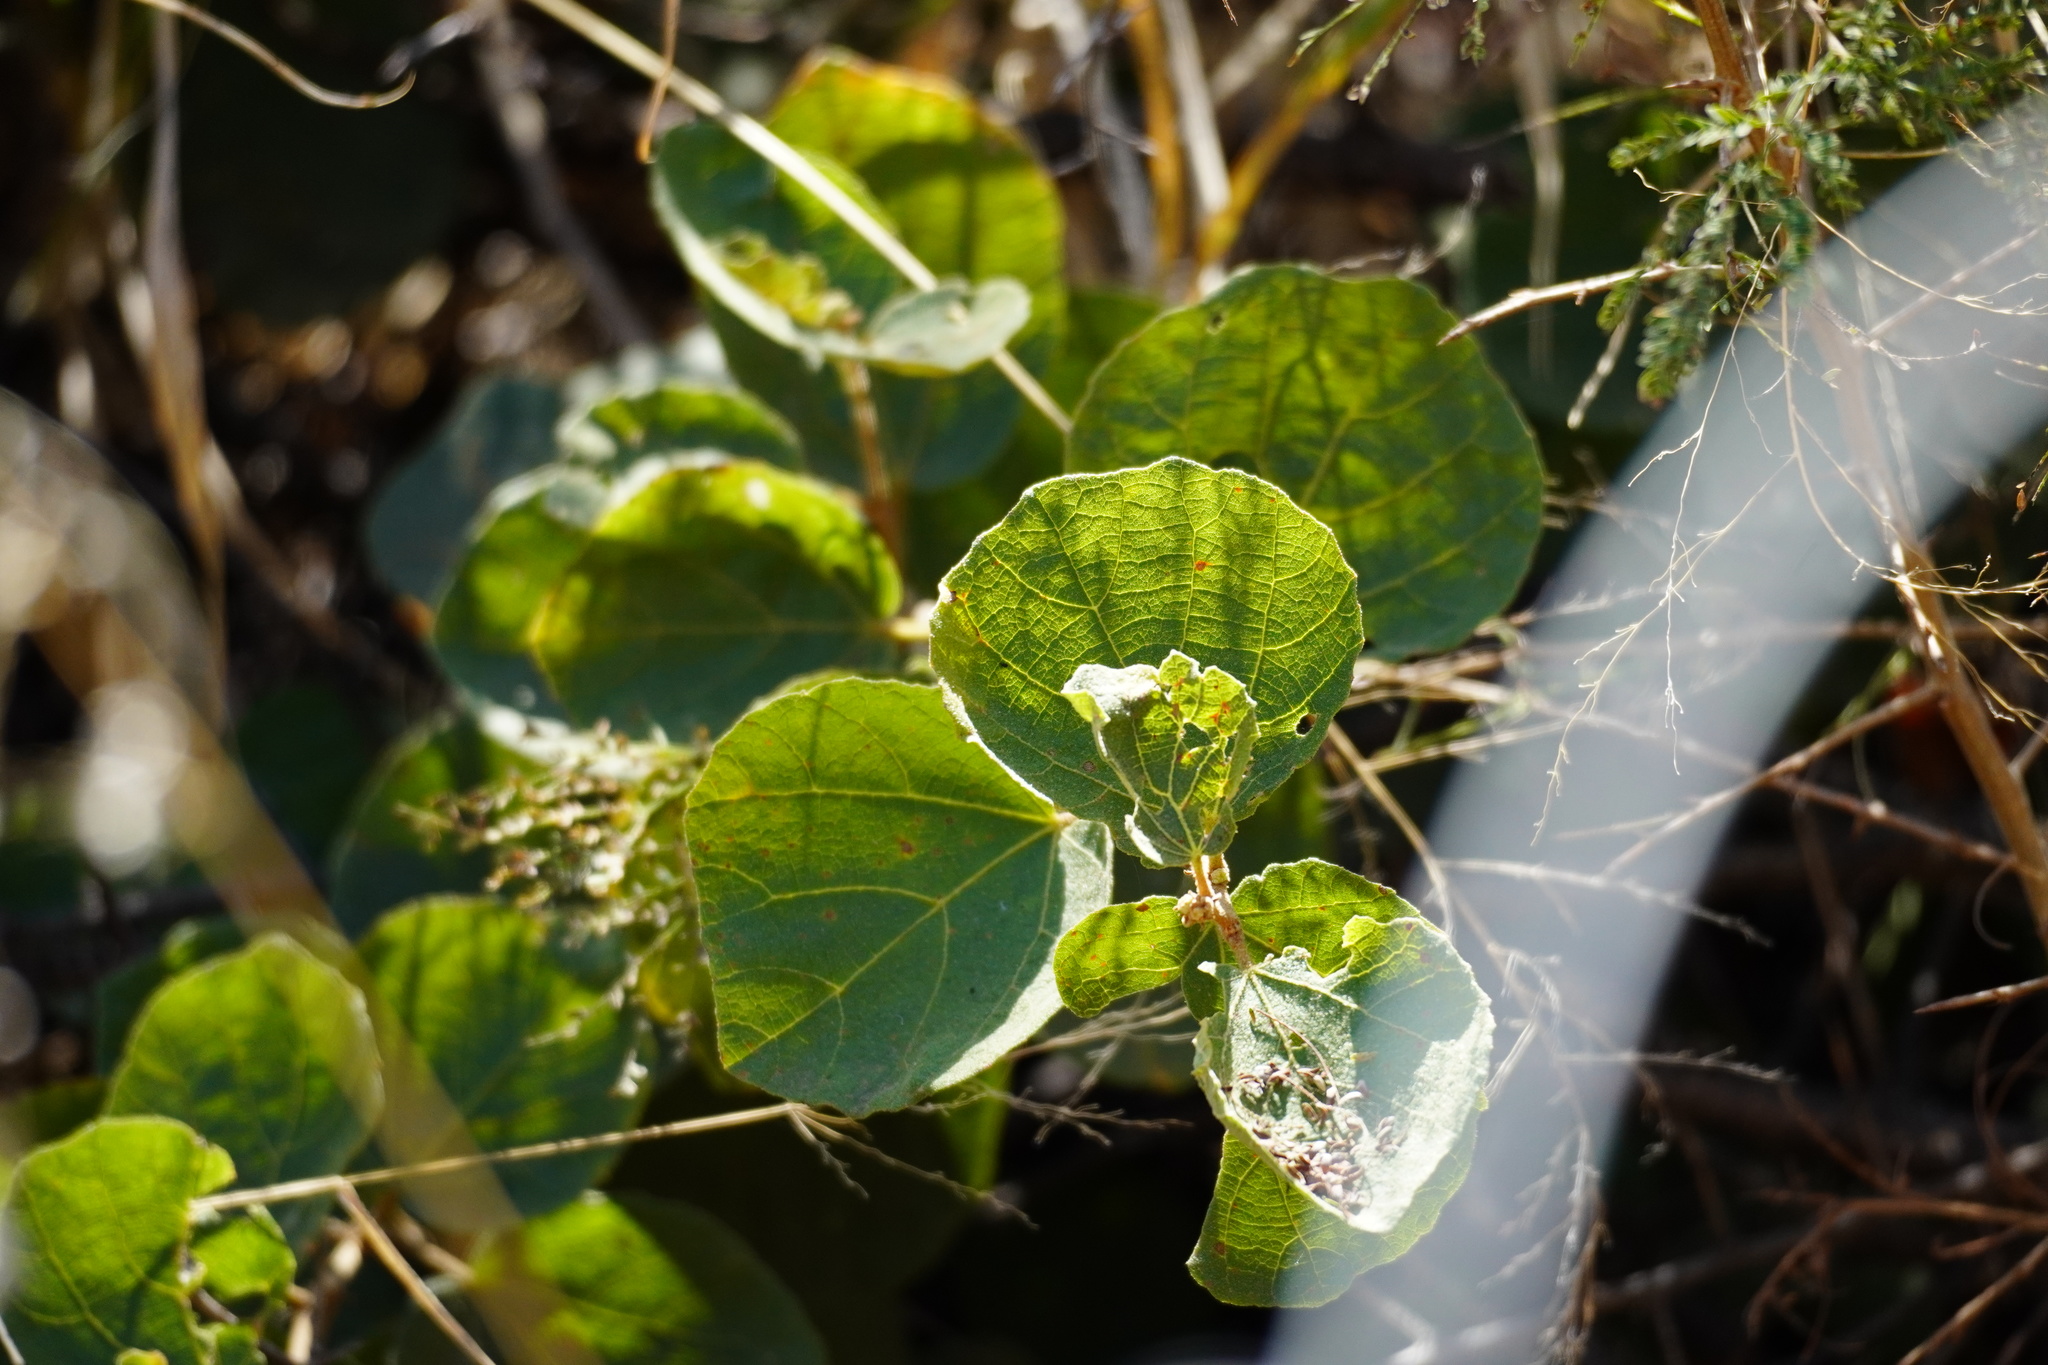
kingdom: Plantae
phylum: Tracheophyta
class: Magnoliopsida
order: Malvales
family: Malvaceae
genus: Dombeya
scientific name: Dombeya rotundifolia
